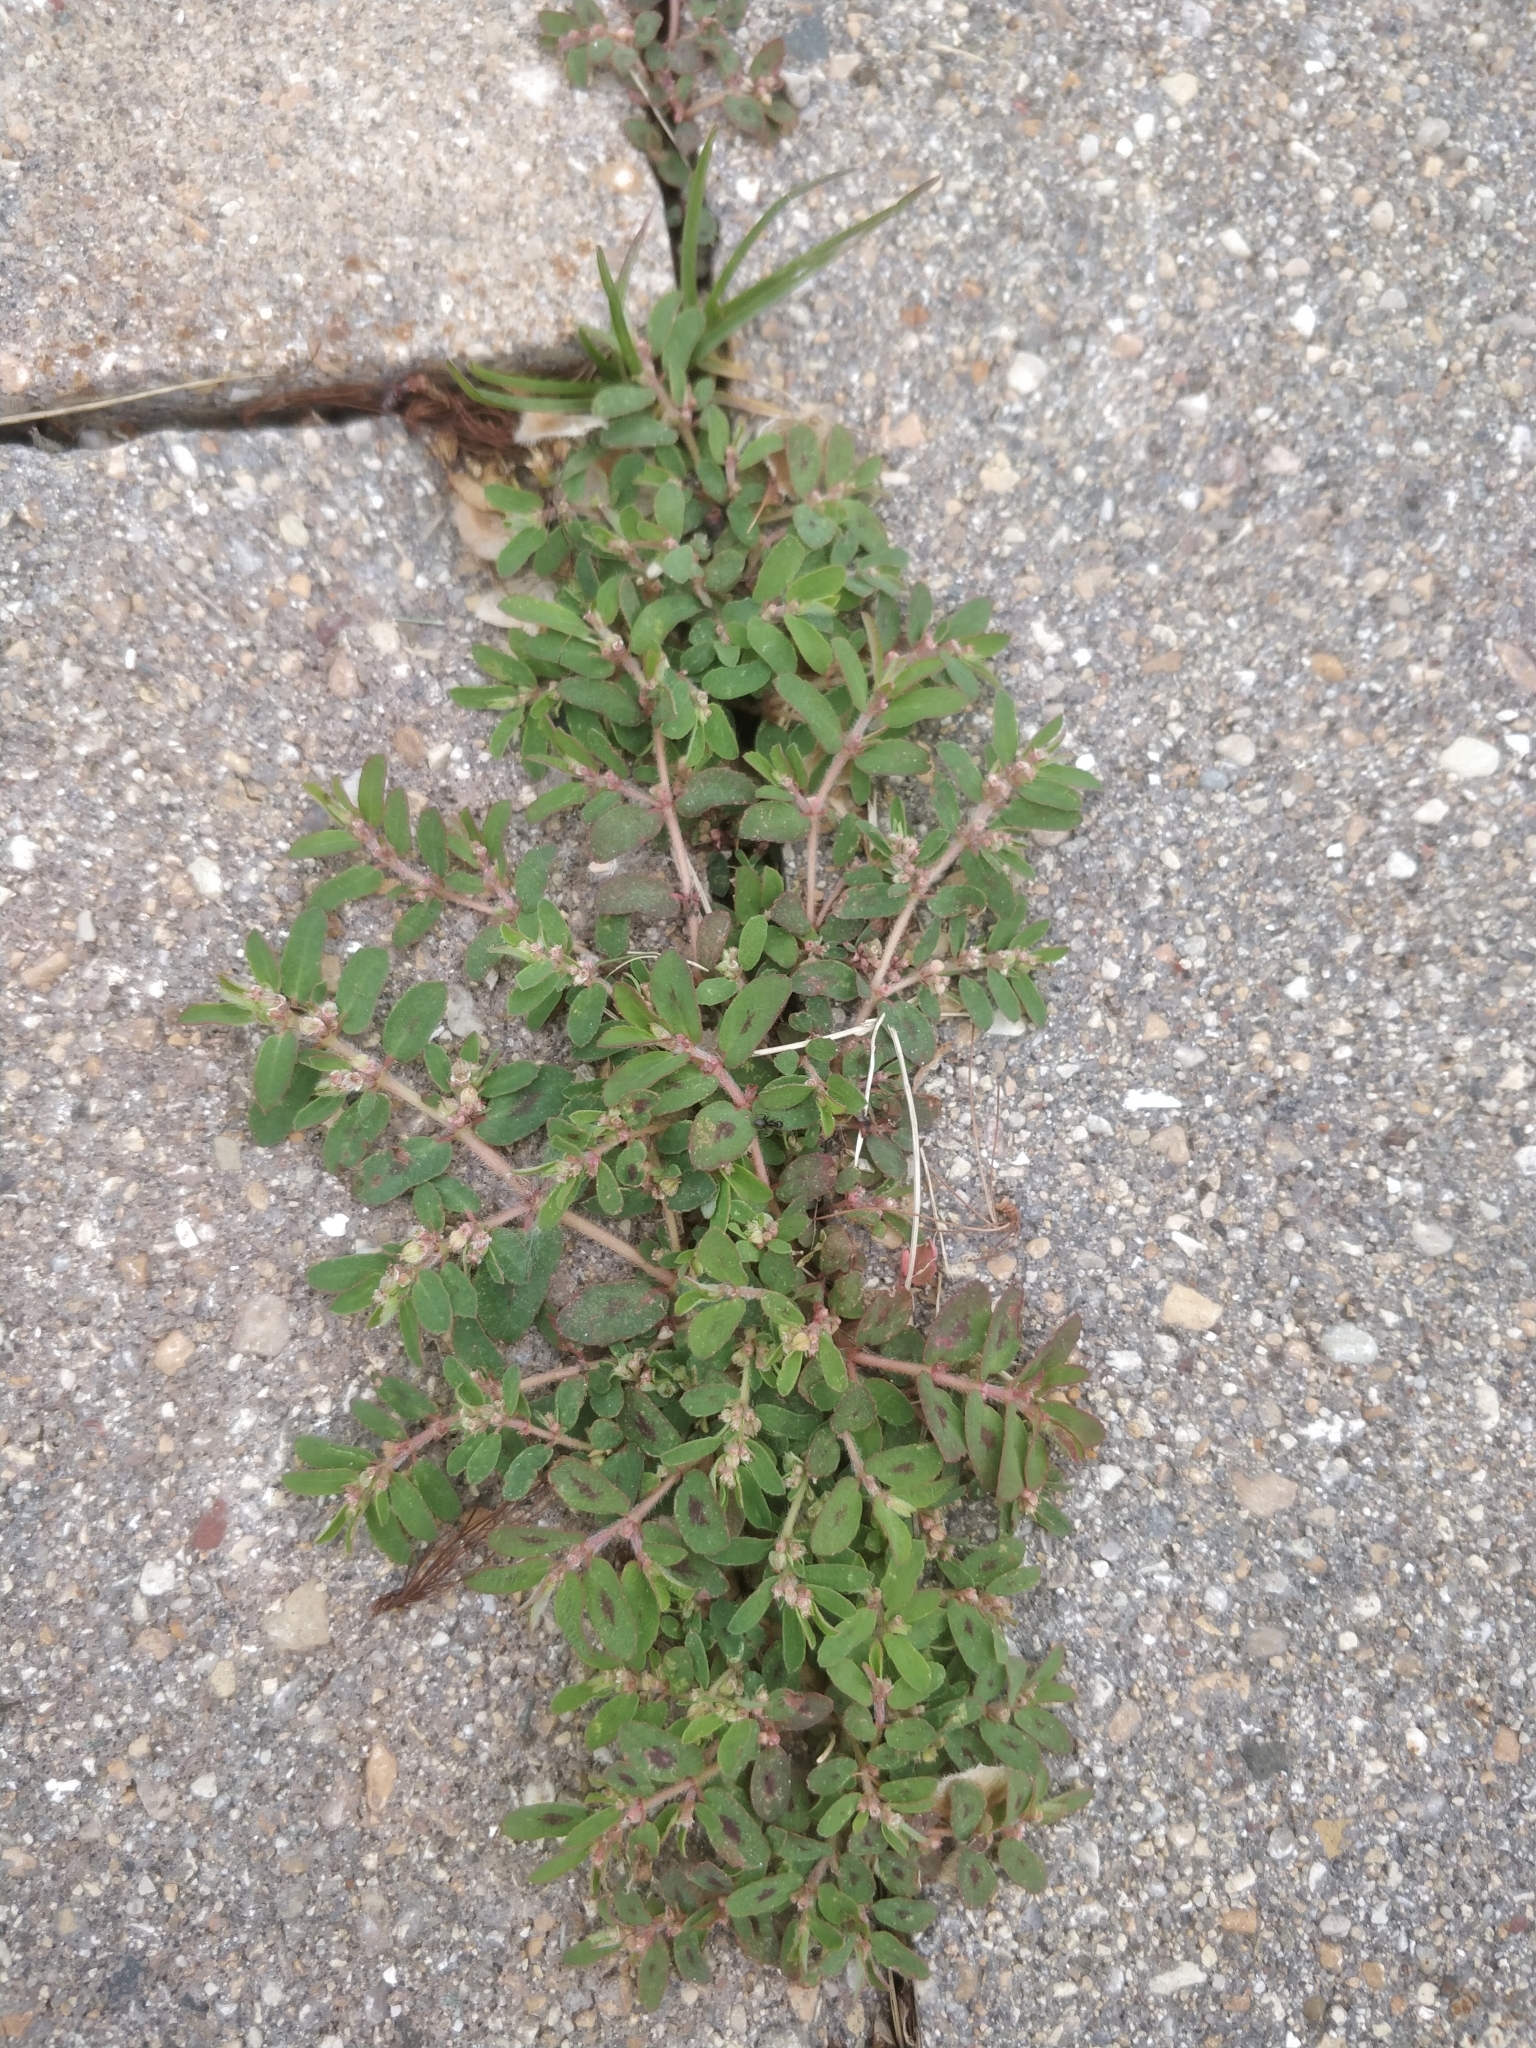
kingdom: Plantae
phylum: Tracheophyta
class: Magnoliopsida
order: Malpighiales
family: Euphorbiaceae
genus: Euphorbia
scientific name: Euphorbia maculata
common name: Spotted spurge
